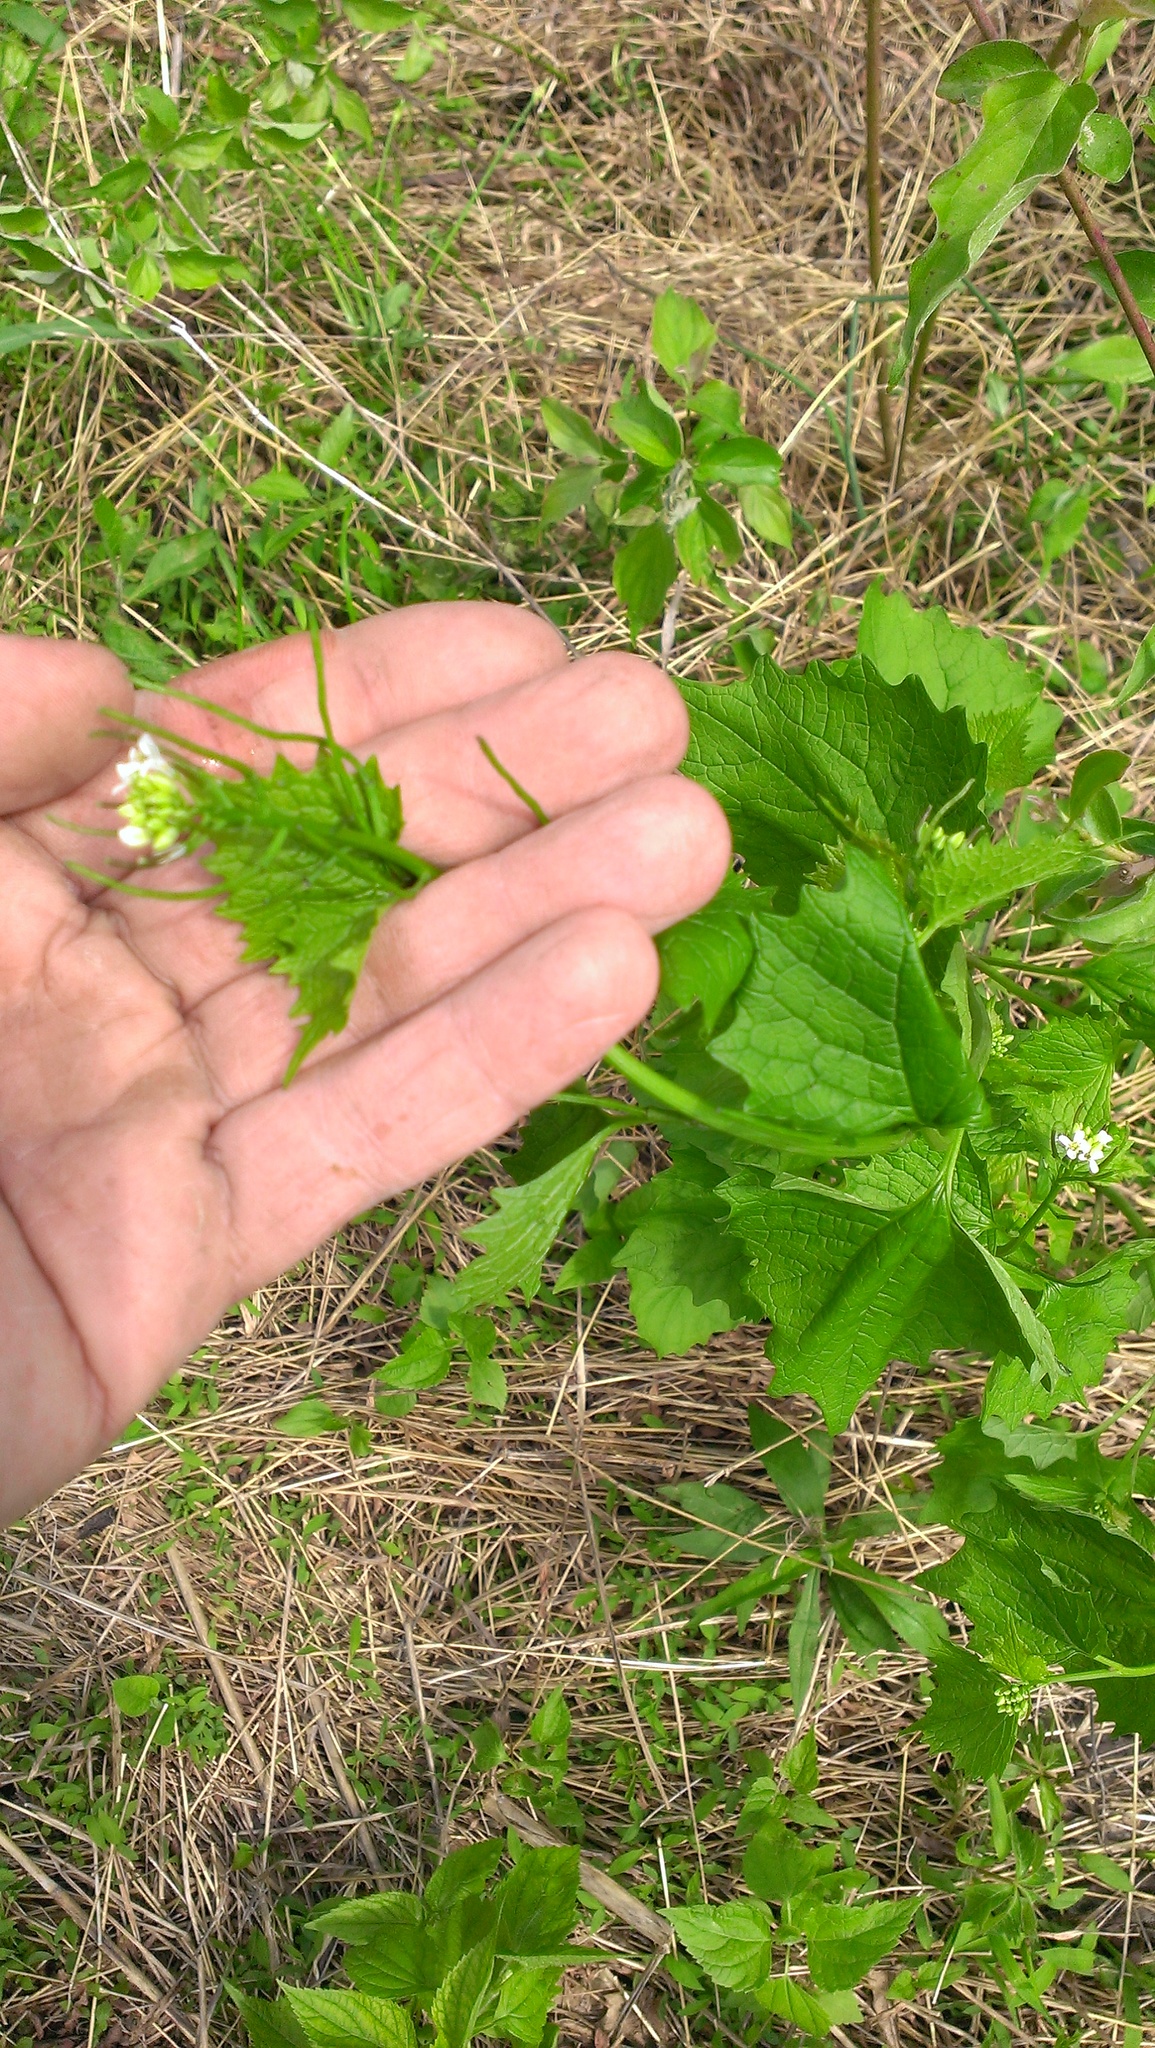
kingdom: Plantae
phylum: Tracheophyta
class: Magnoliopsida
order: Brassicales
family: Brassicaceae
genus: Alliaria
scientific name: Alliaria petiolata
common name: Garlic mustard
